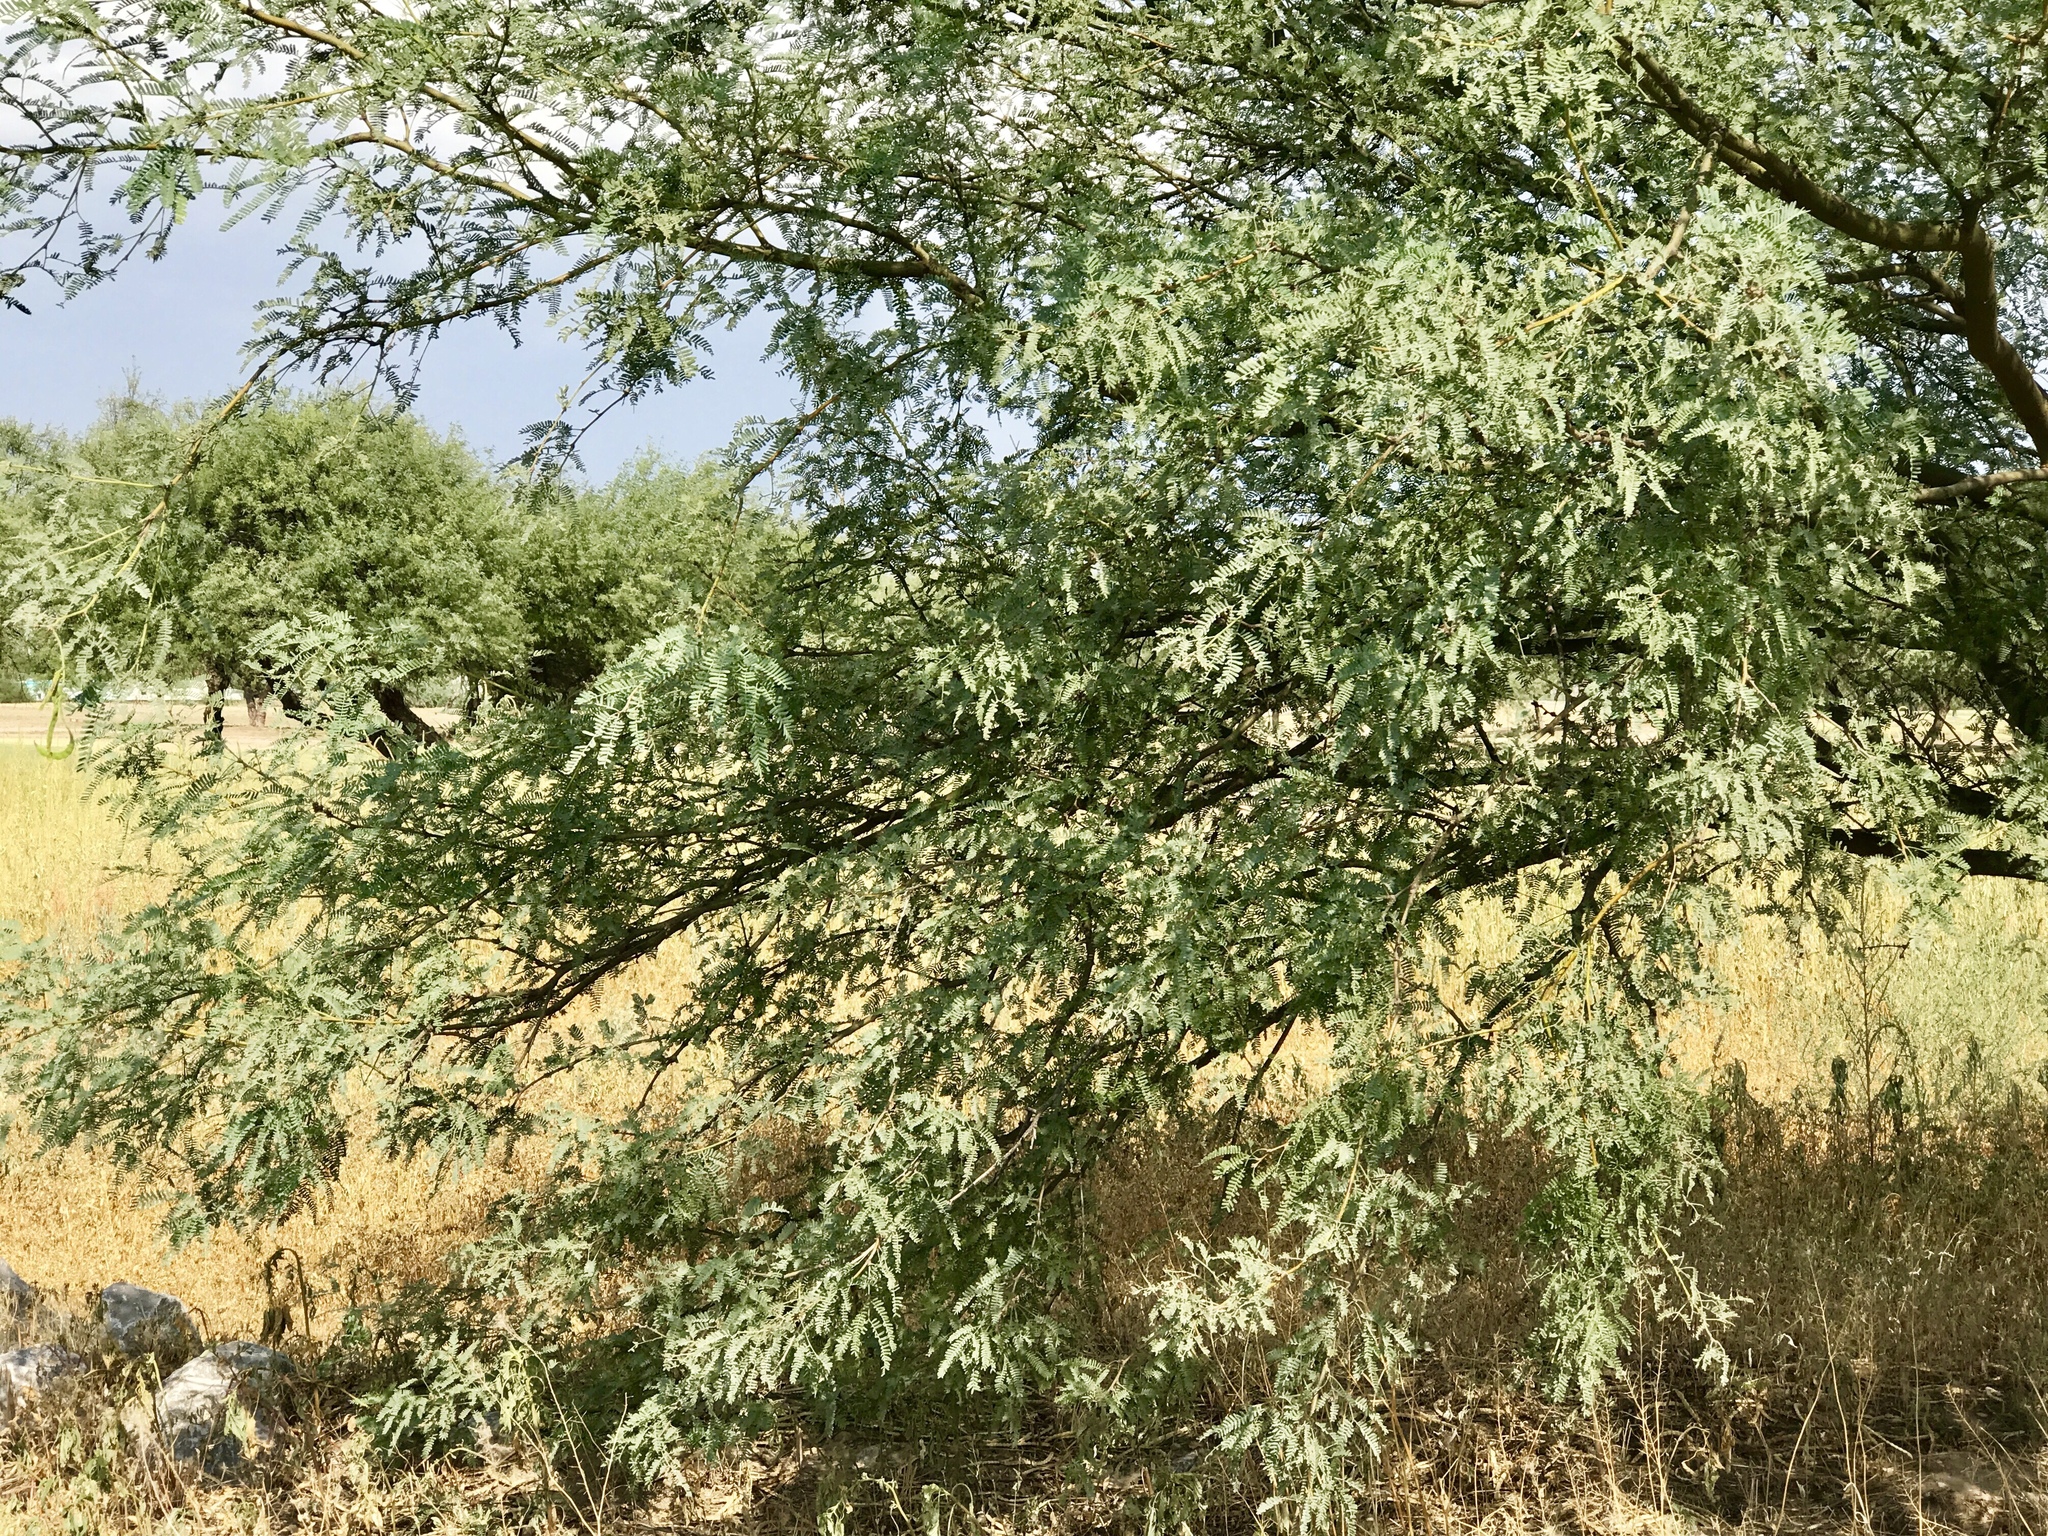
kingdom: Plantae
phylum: Tracheophyta
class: Magnoliopsida
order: Fabales
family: Fabaceae
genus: Prosopis
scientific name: Prosopis velutina
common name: Velvet mesquite
